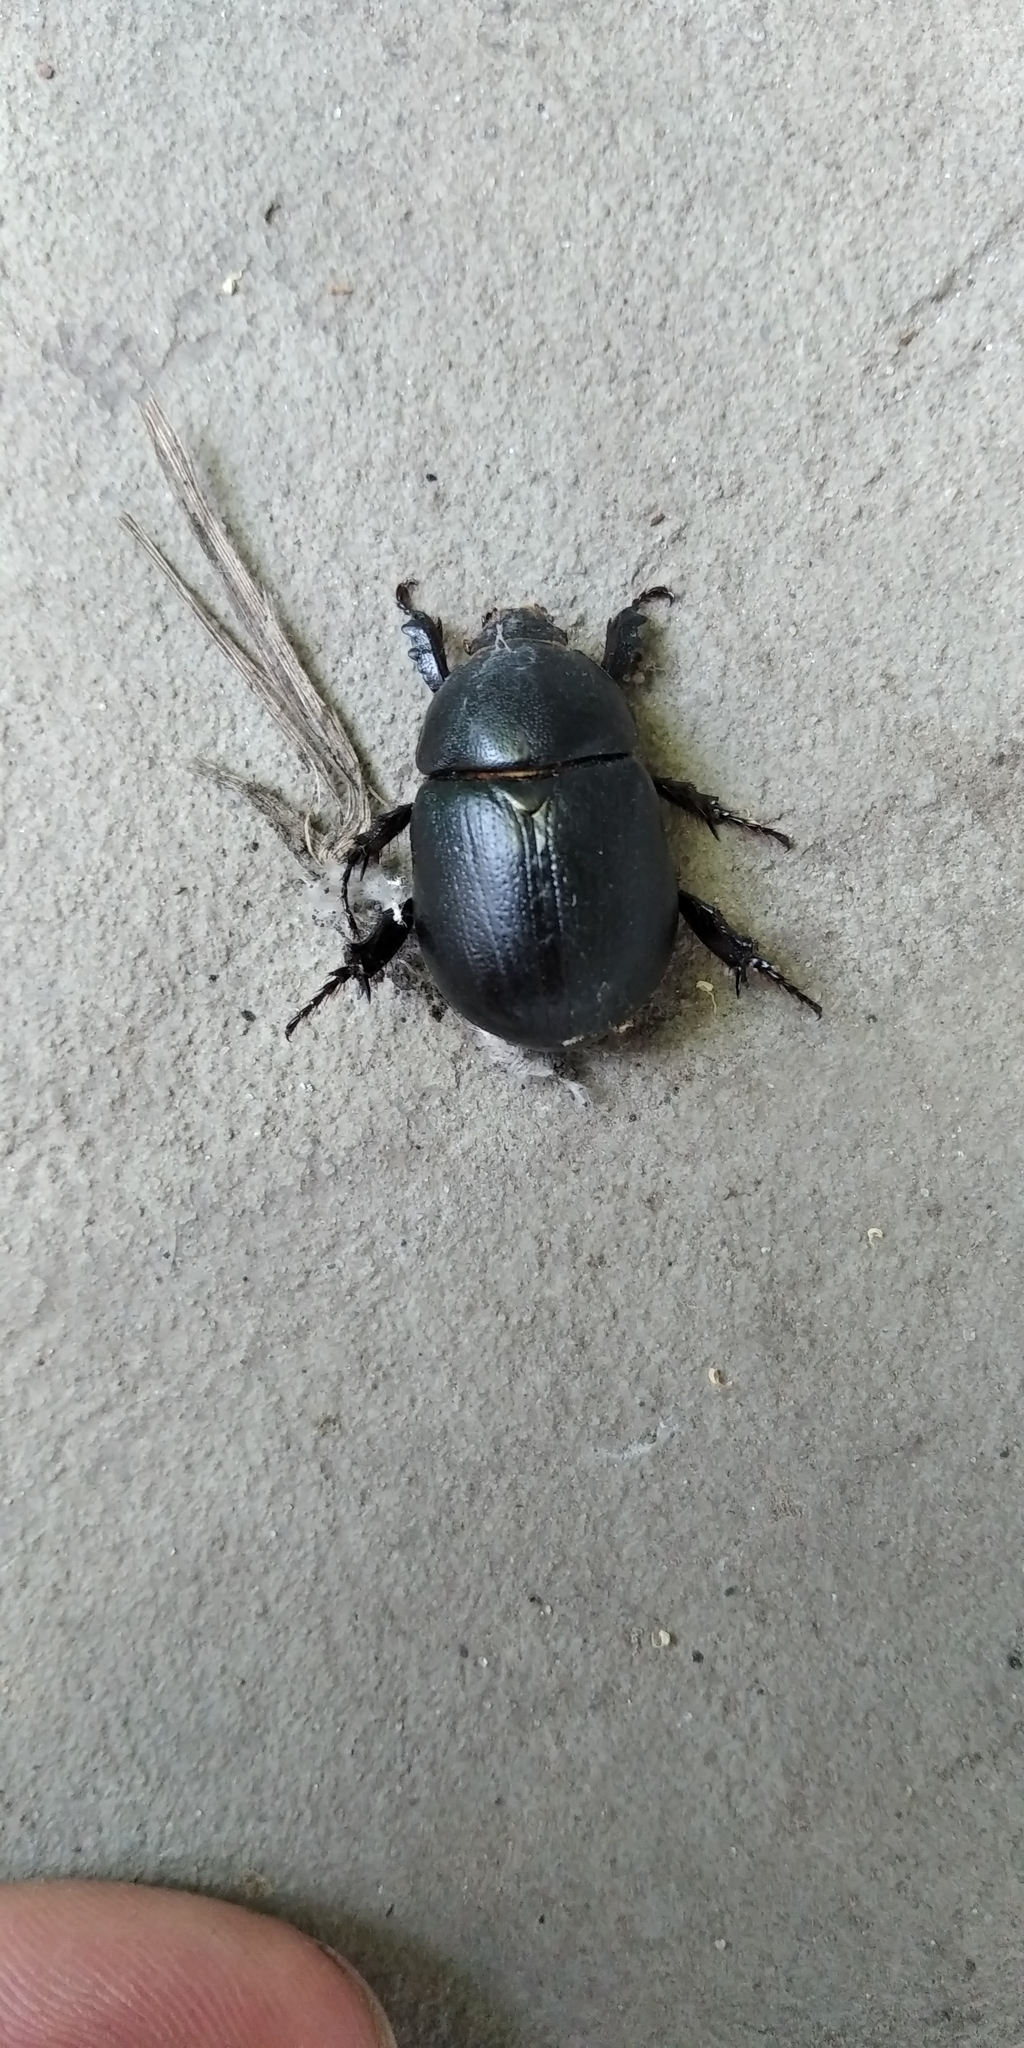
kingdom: Animalia
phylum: Arthropoda
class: Insecta
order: Coleoptera
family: Scarabaeidae
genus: Pentodon
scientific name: Pentodon idiota
